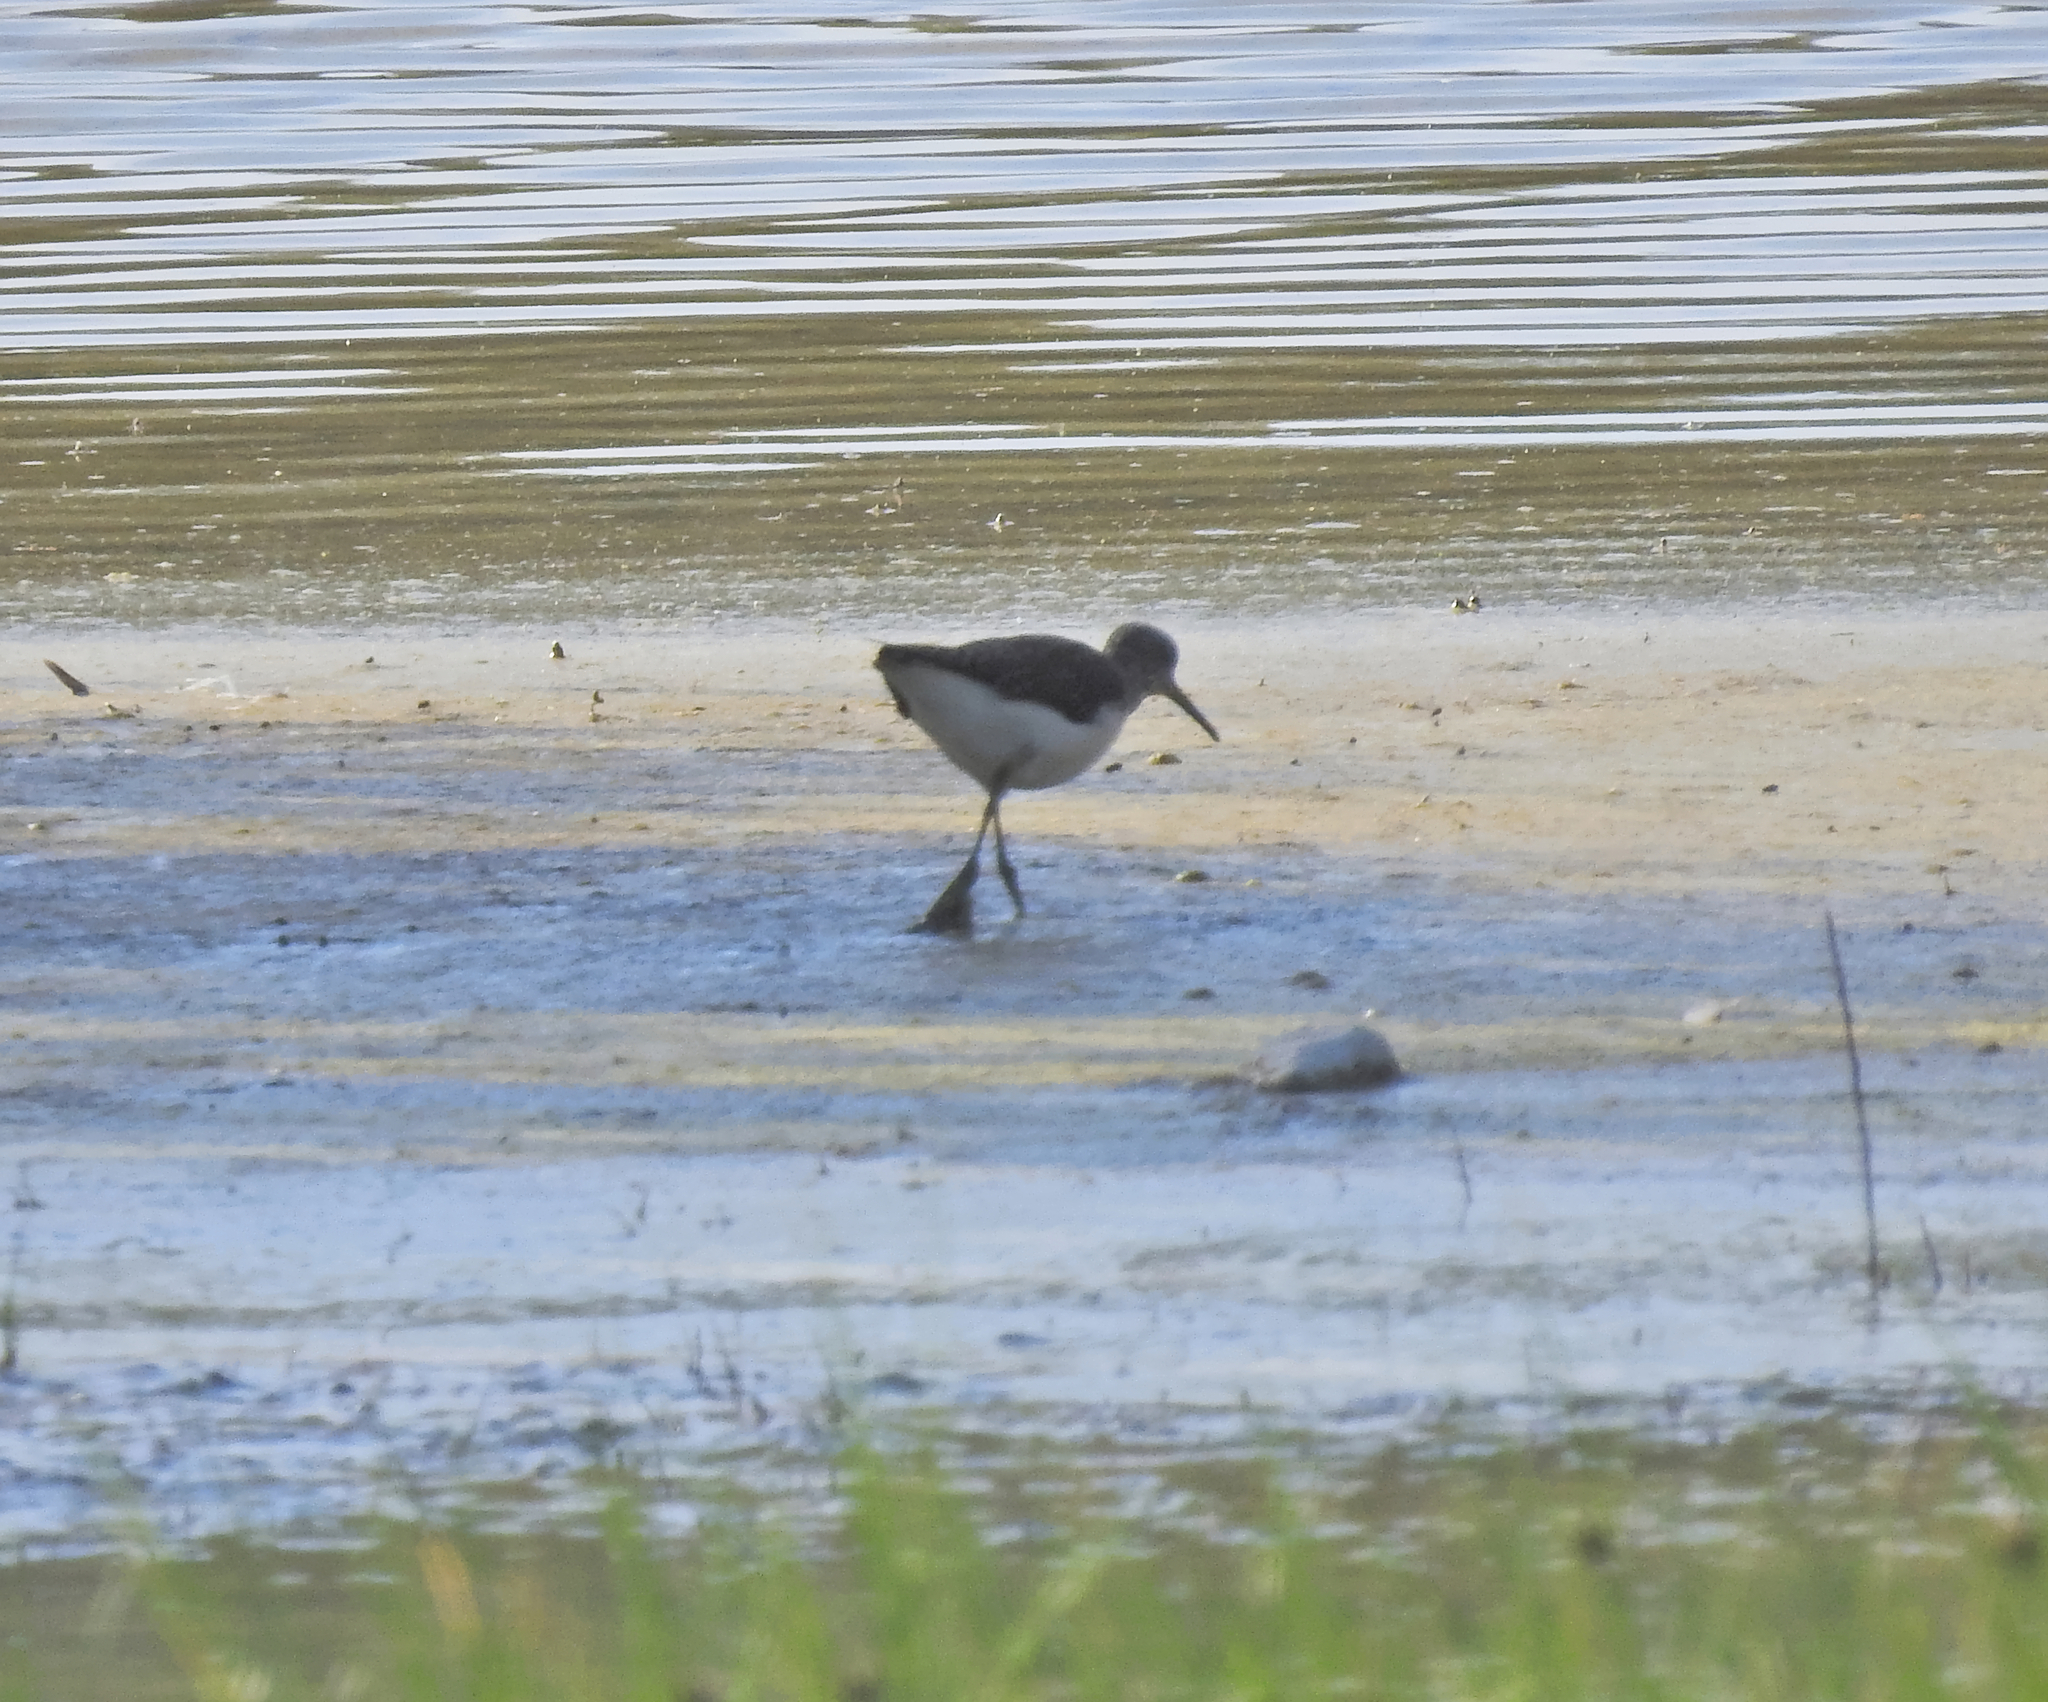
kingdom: Animalia
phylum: Chordata
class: Aves
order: Charadriiformes
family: Scolopacidae
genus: Actitis
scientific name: Actitis hypoleucos
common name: Common sandpiper
